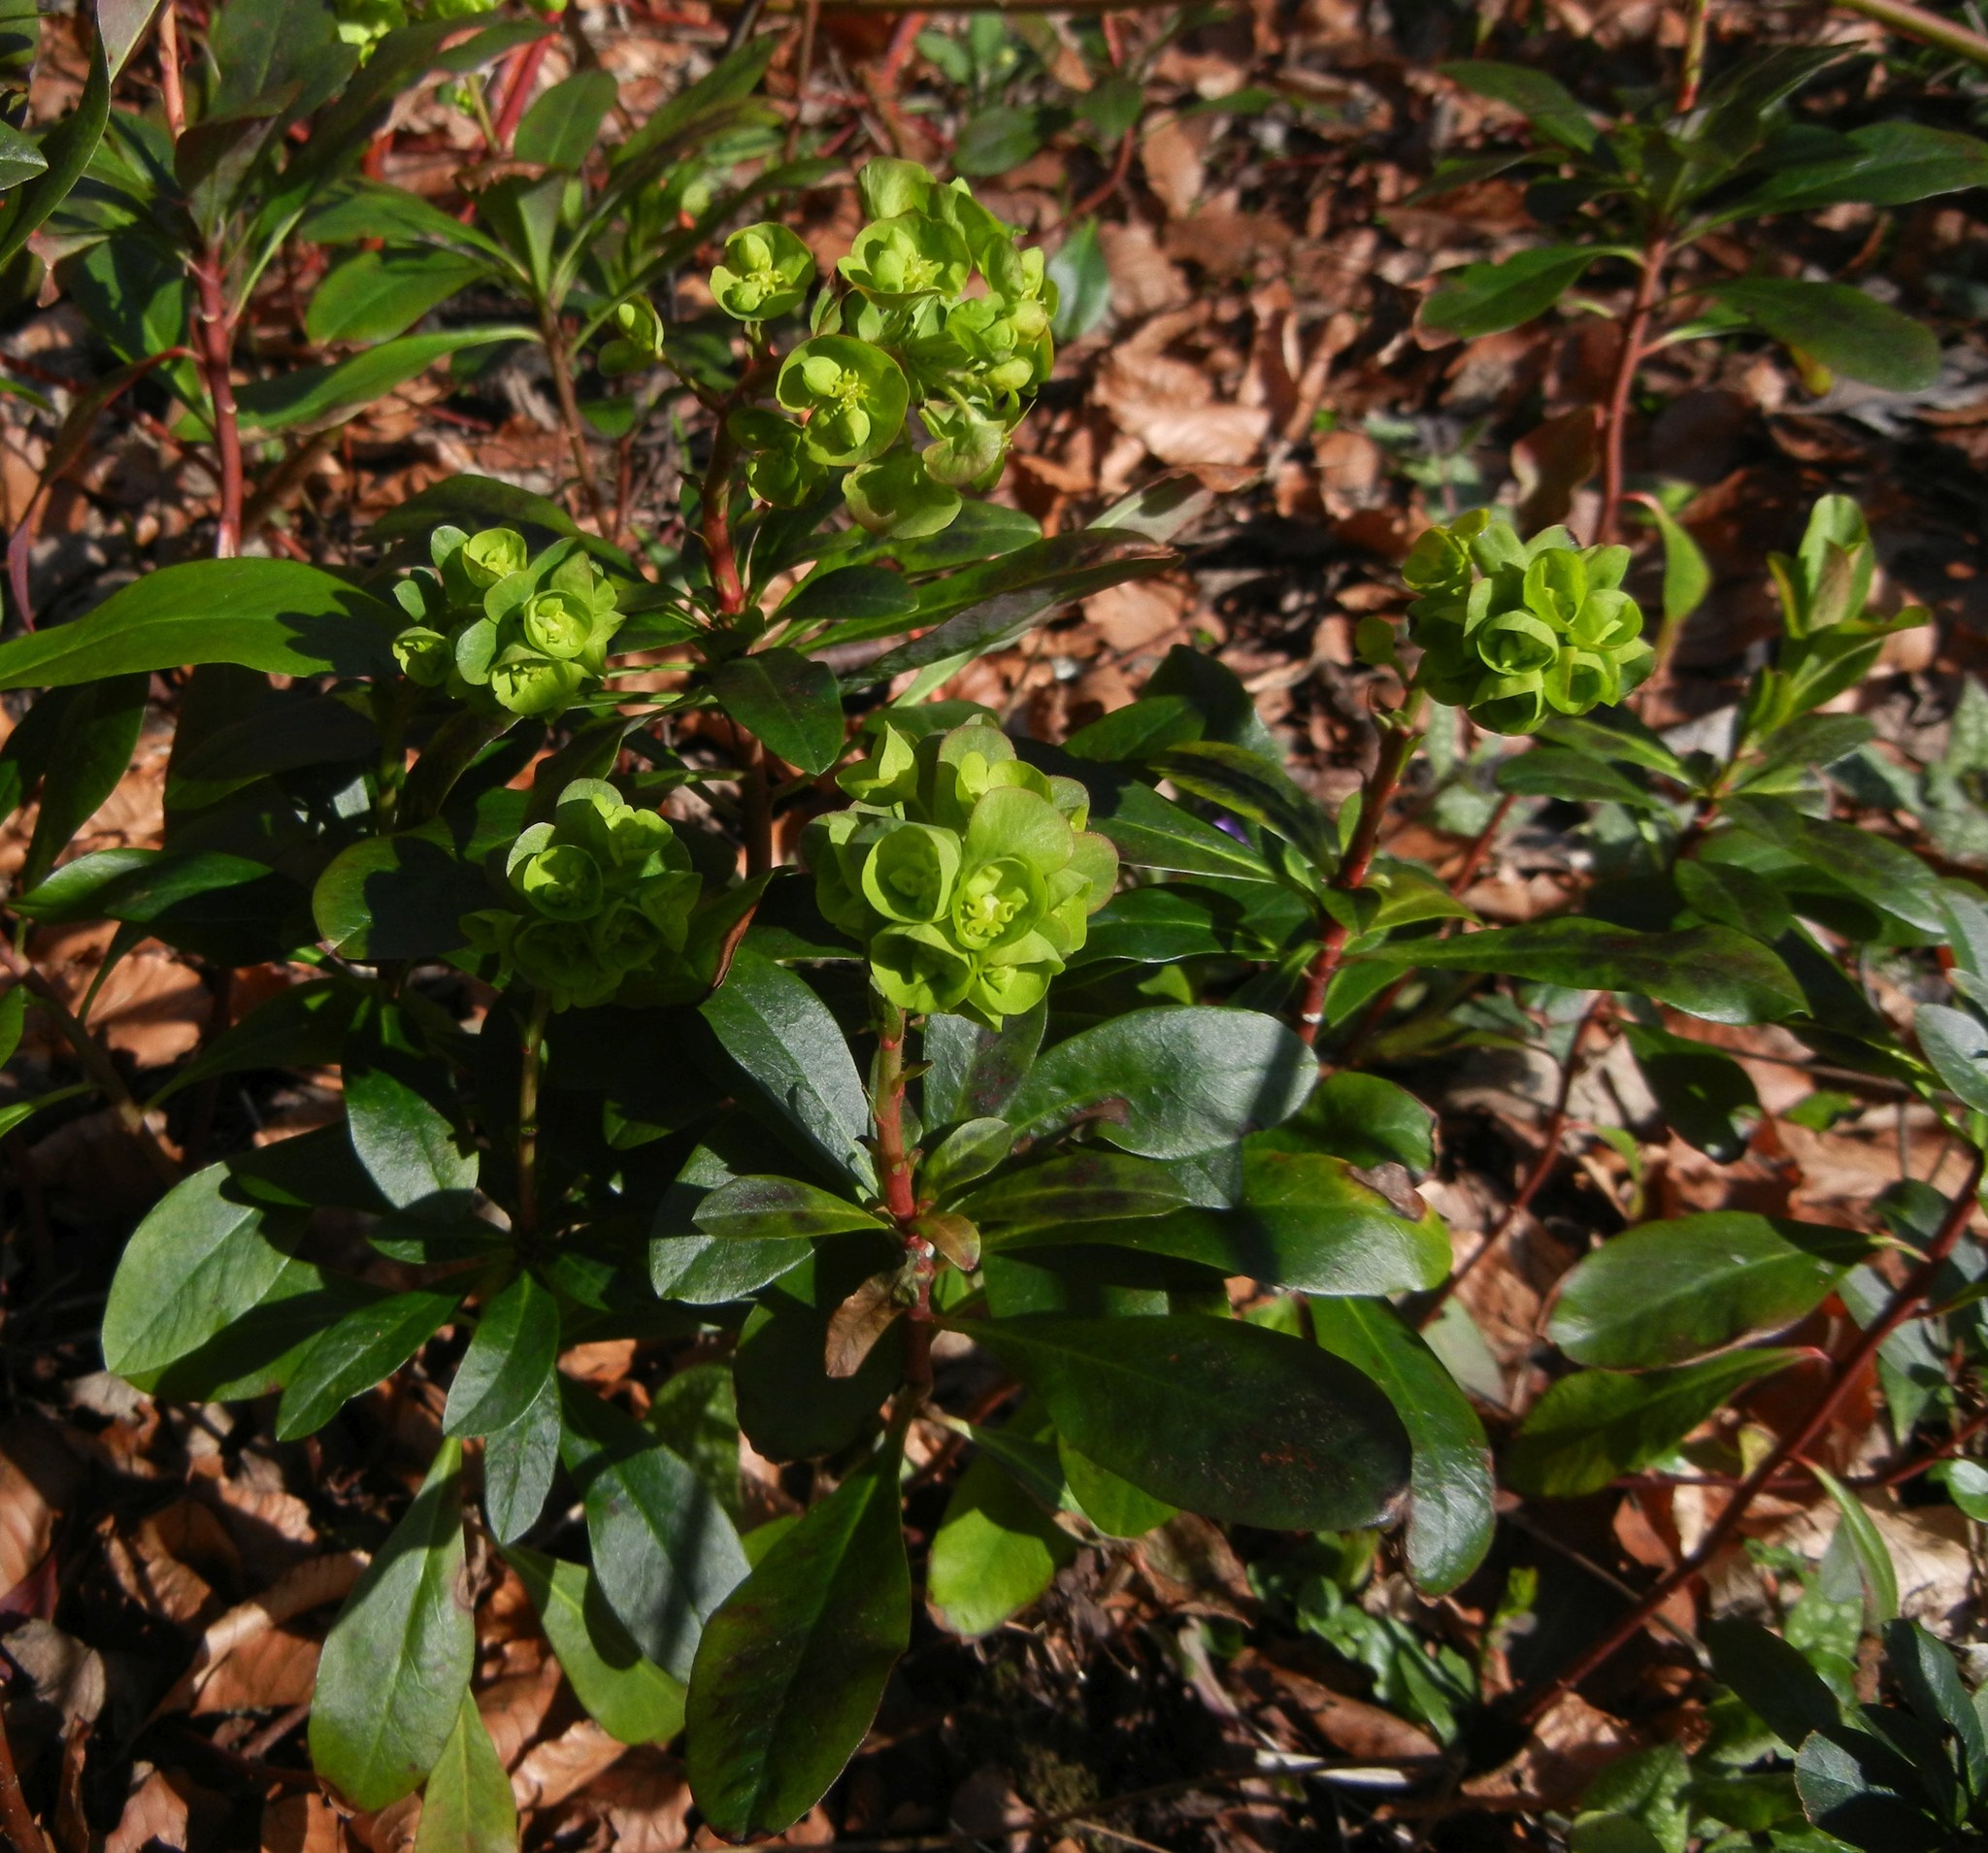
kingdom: Plantae
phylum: Tracheophyta
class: Magnoliopsida
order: Malpighiales
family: Euphorbiaceae
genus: Euphorbia
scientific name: Euphorbia amygdaloides
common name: Wood spurge
